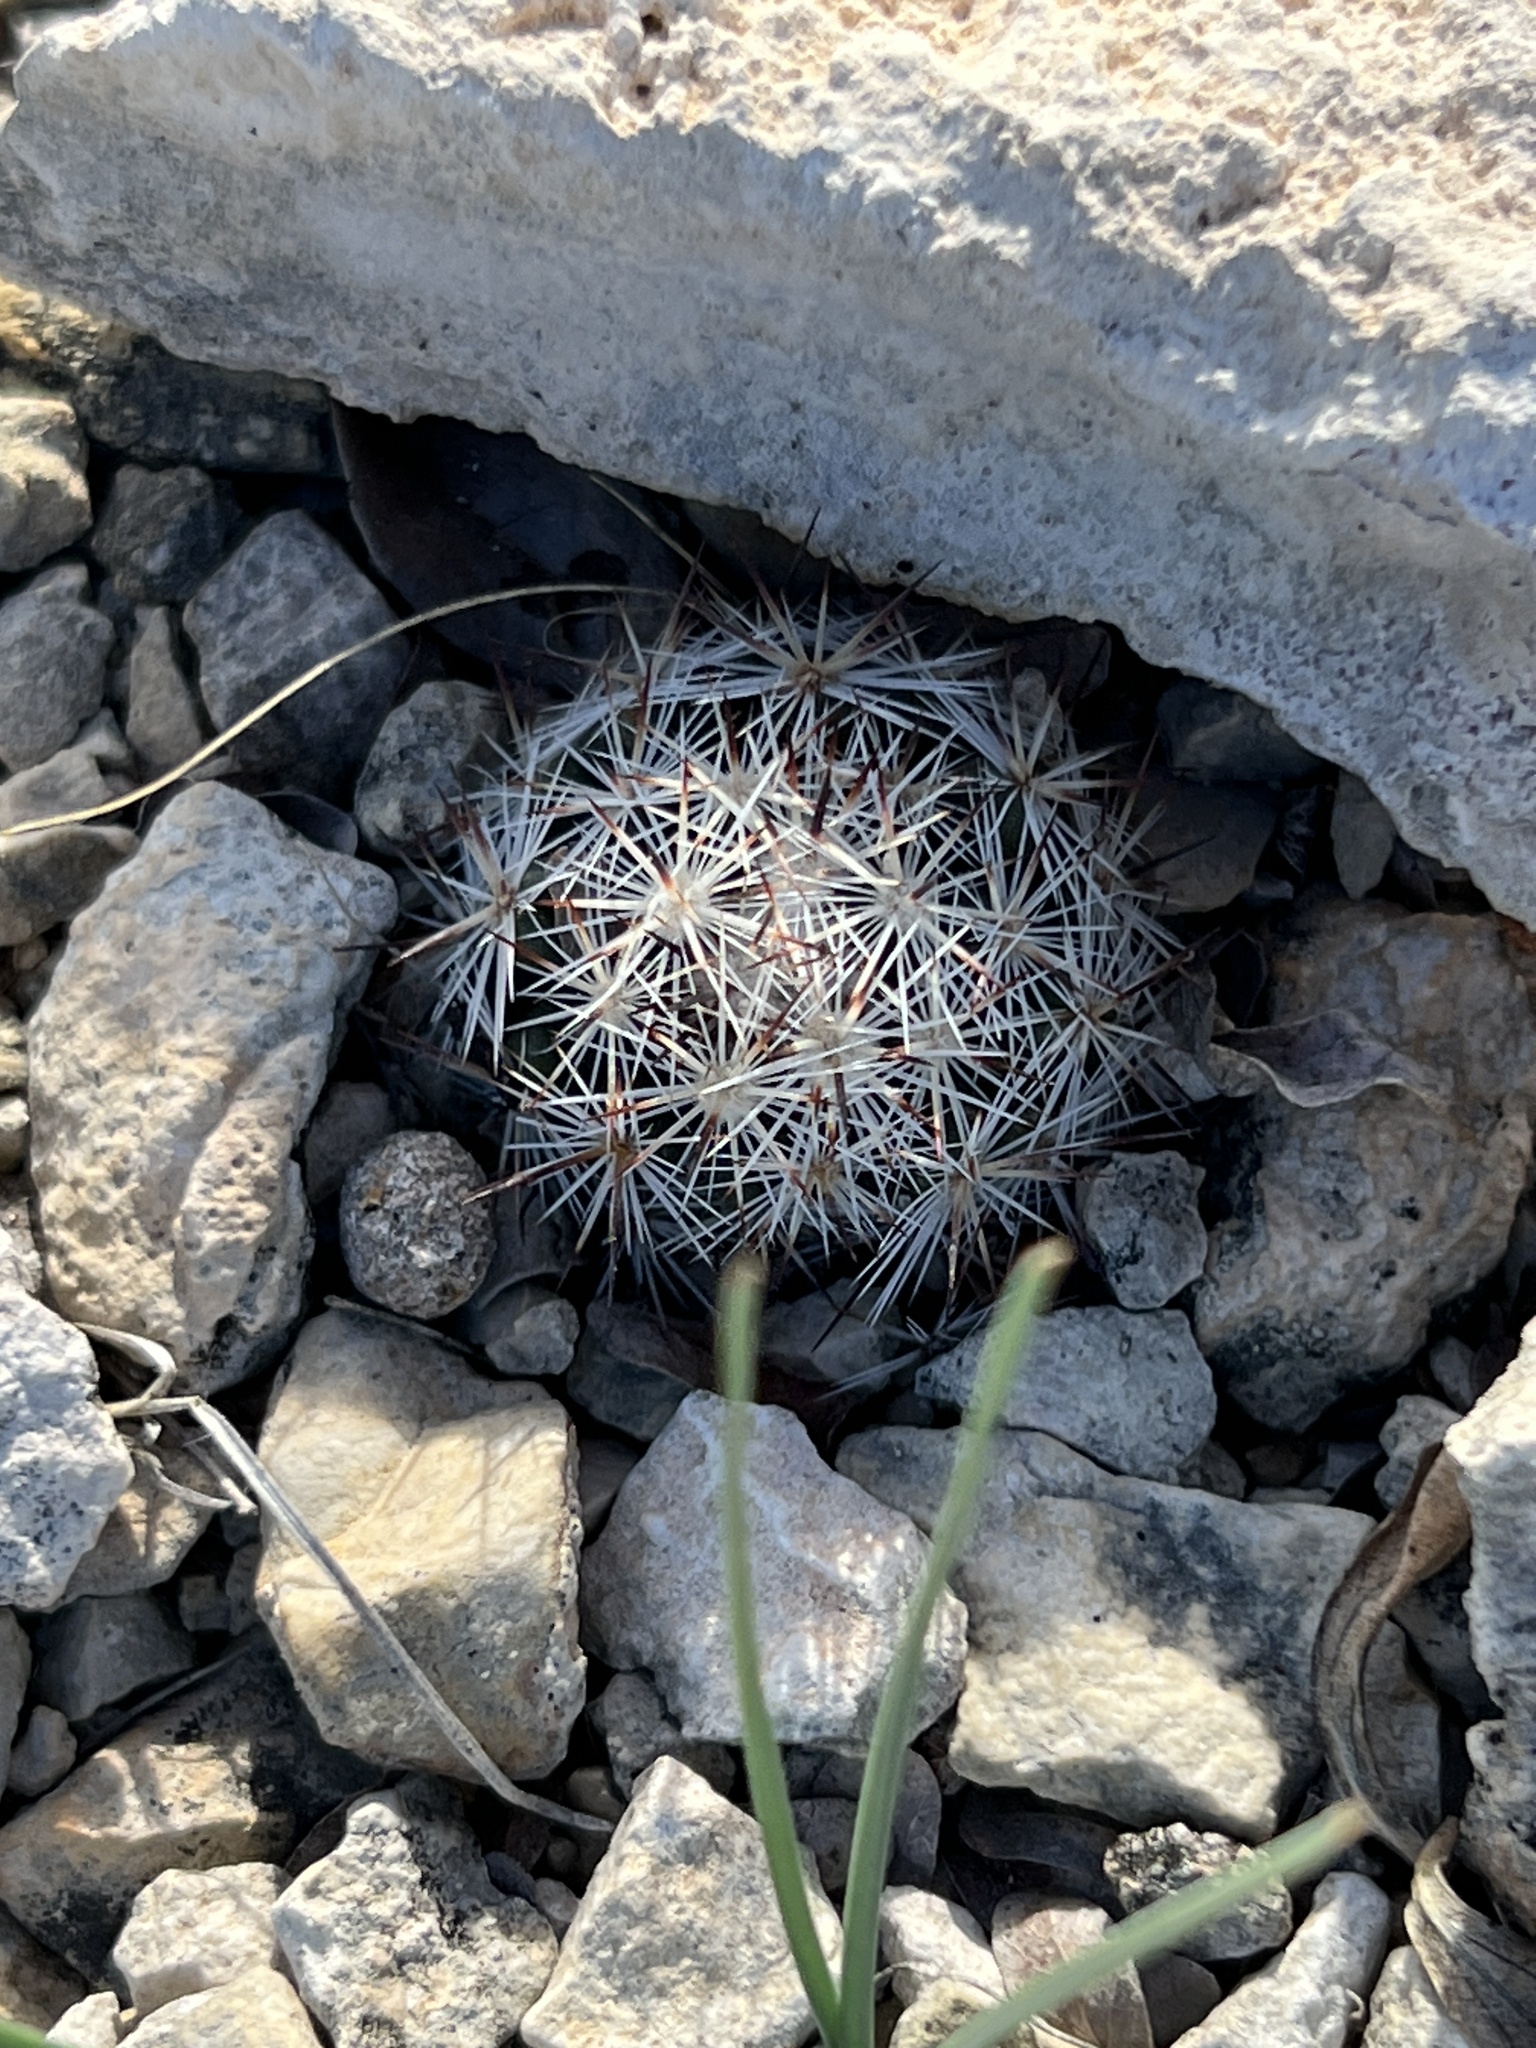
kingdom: Plantae
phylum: Tracheophyta
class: Magnoliopsida
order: Caryophyllales
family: Cactaceae
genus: Pelecyphora
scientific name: Pelecyphora emskoetteriana
